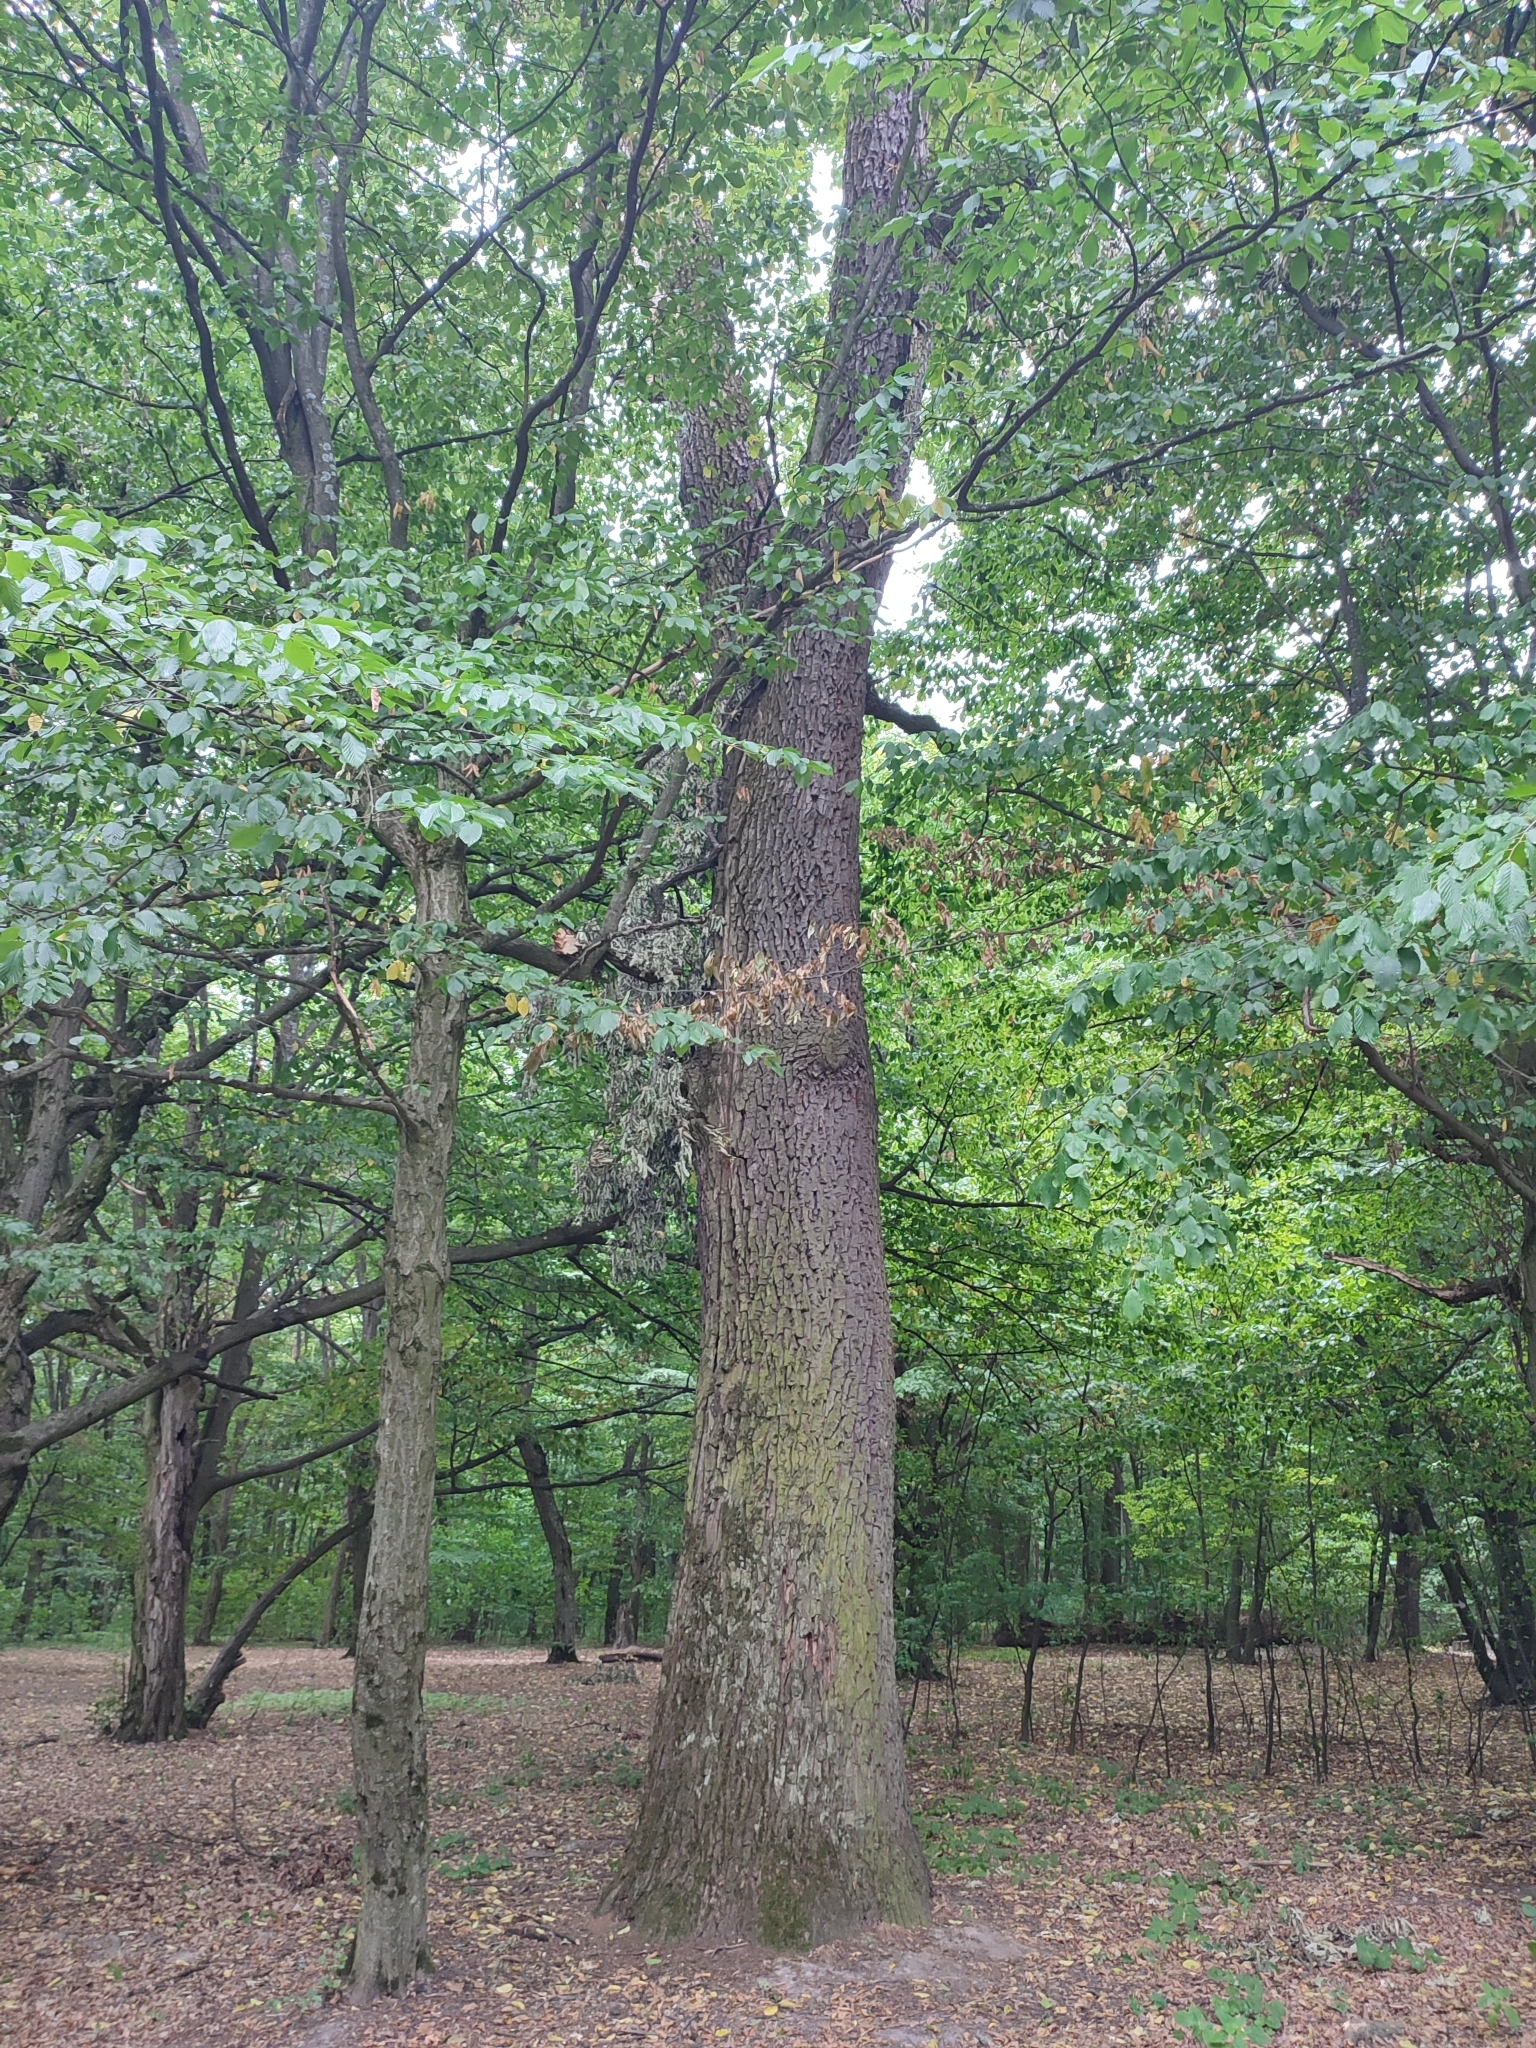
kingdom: Plantae
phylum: Tracheophyta
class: Magnoliopsida
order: Fagales
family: Fagaceae
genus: Quercus
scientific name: Quercus robur
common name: Pedunculate oak
